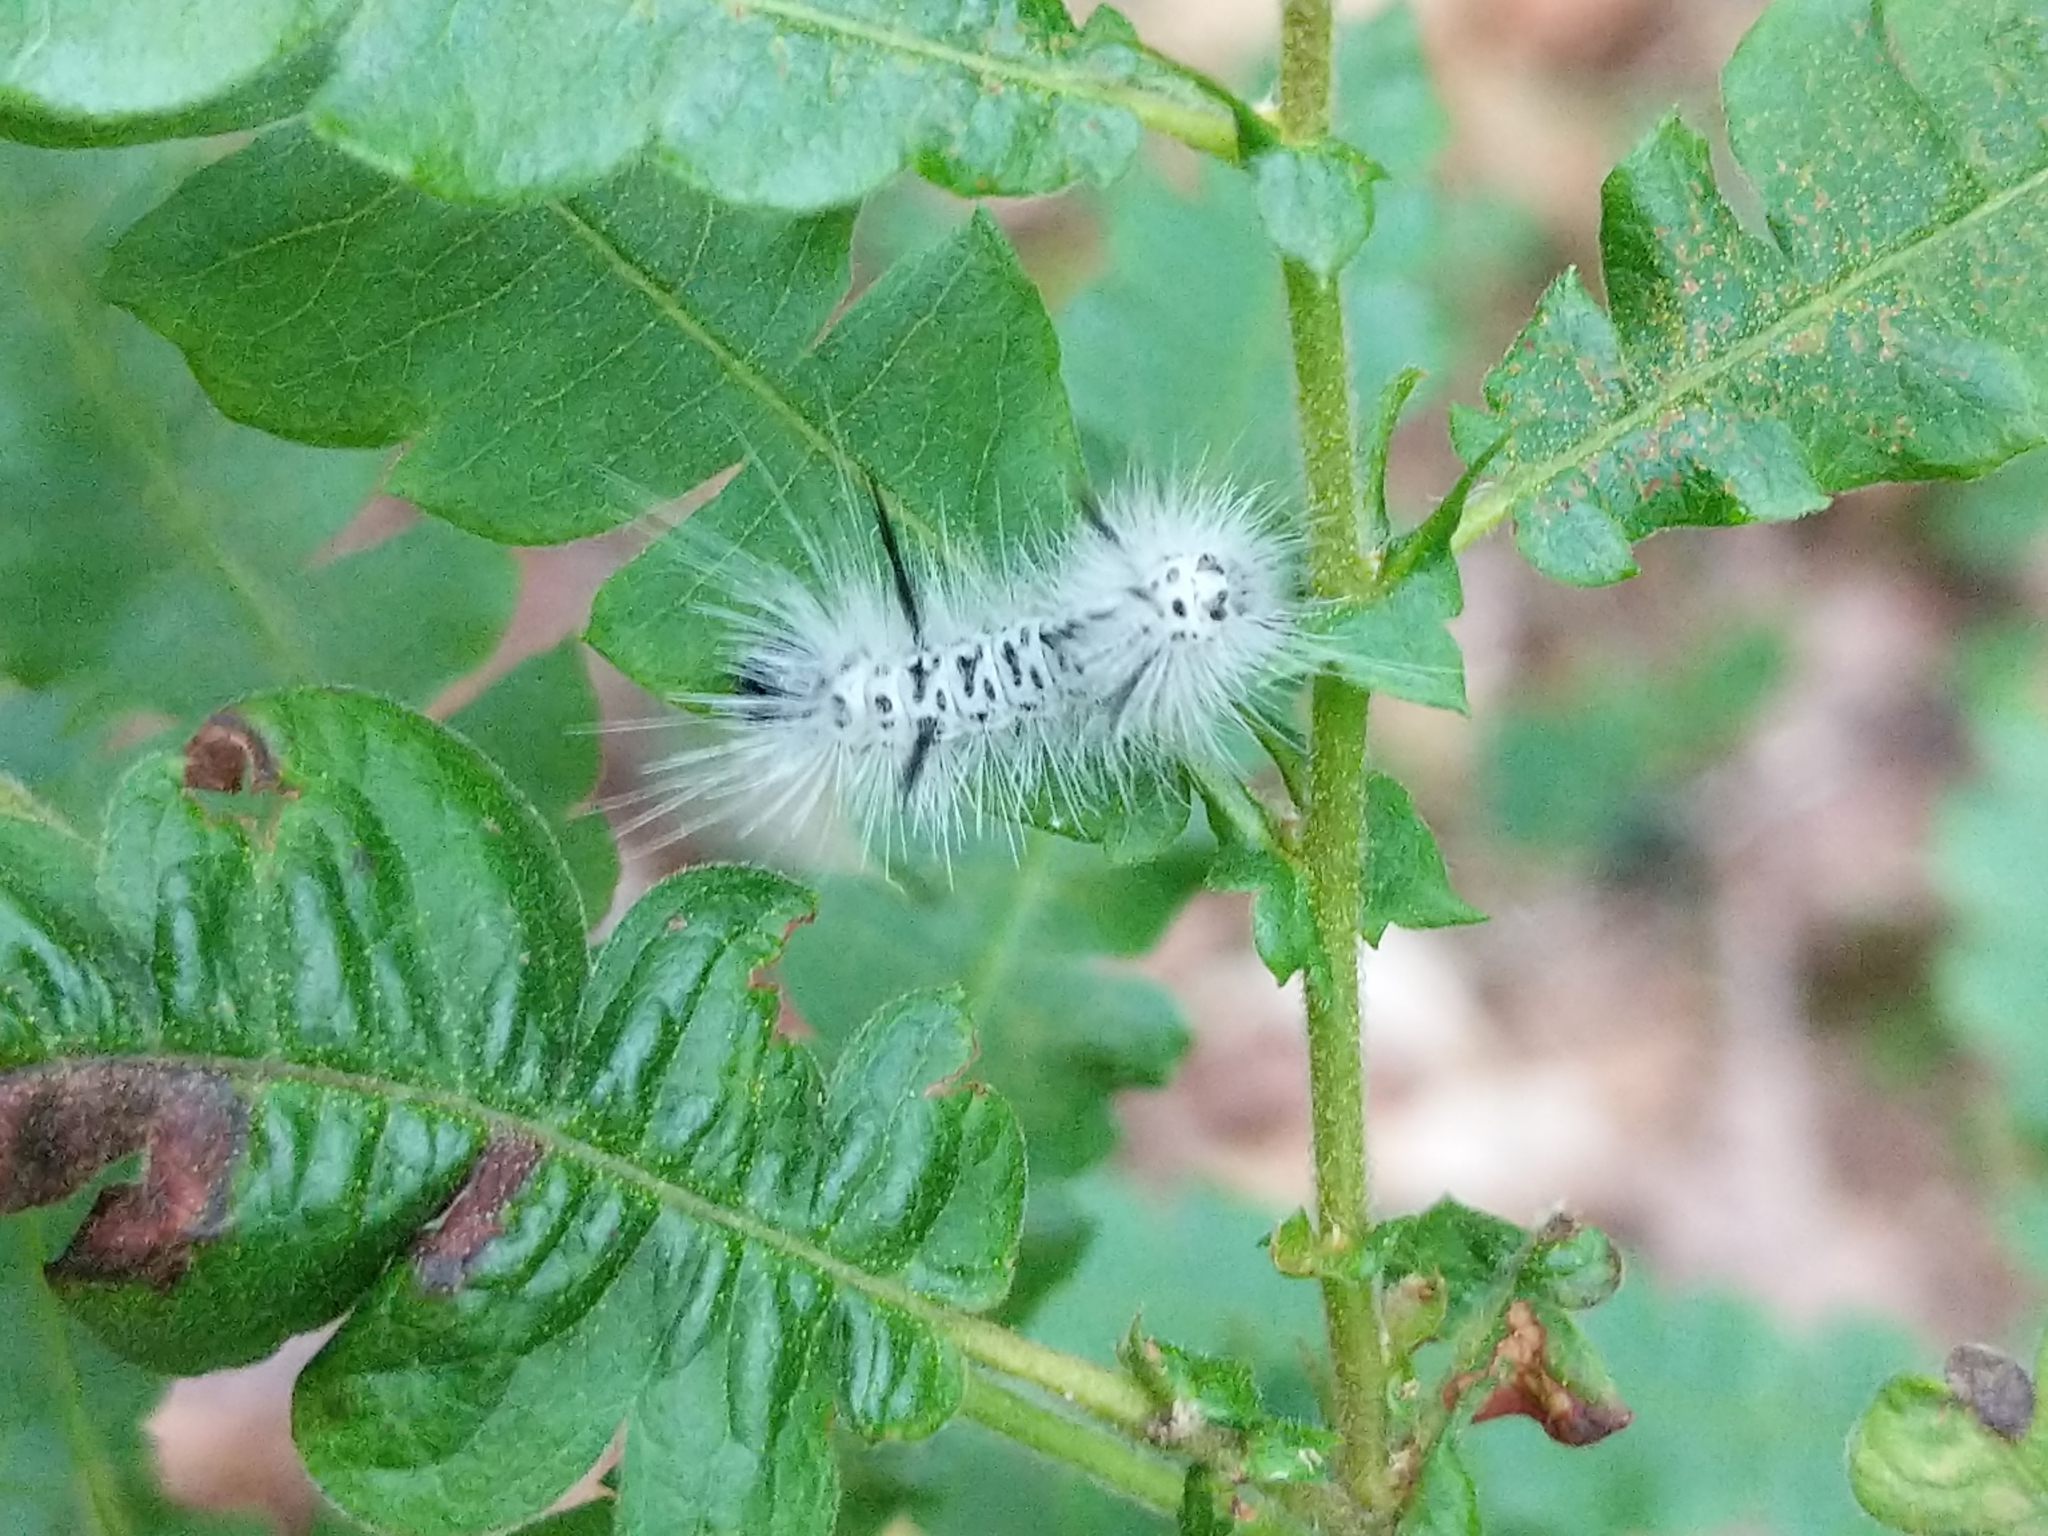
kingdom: Animalia
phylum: Arthropoda
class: Insecta
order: Lepidoptera
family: Erebidae
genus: Lophocampa
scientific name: Lophocampa caryae
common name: Hickory tussock moth
